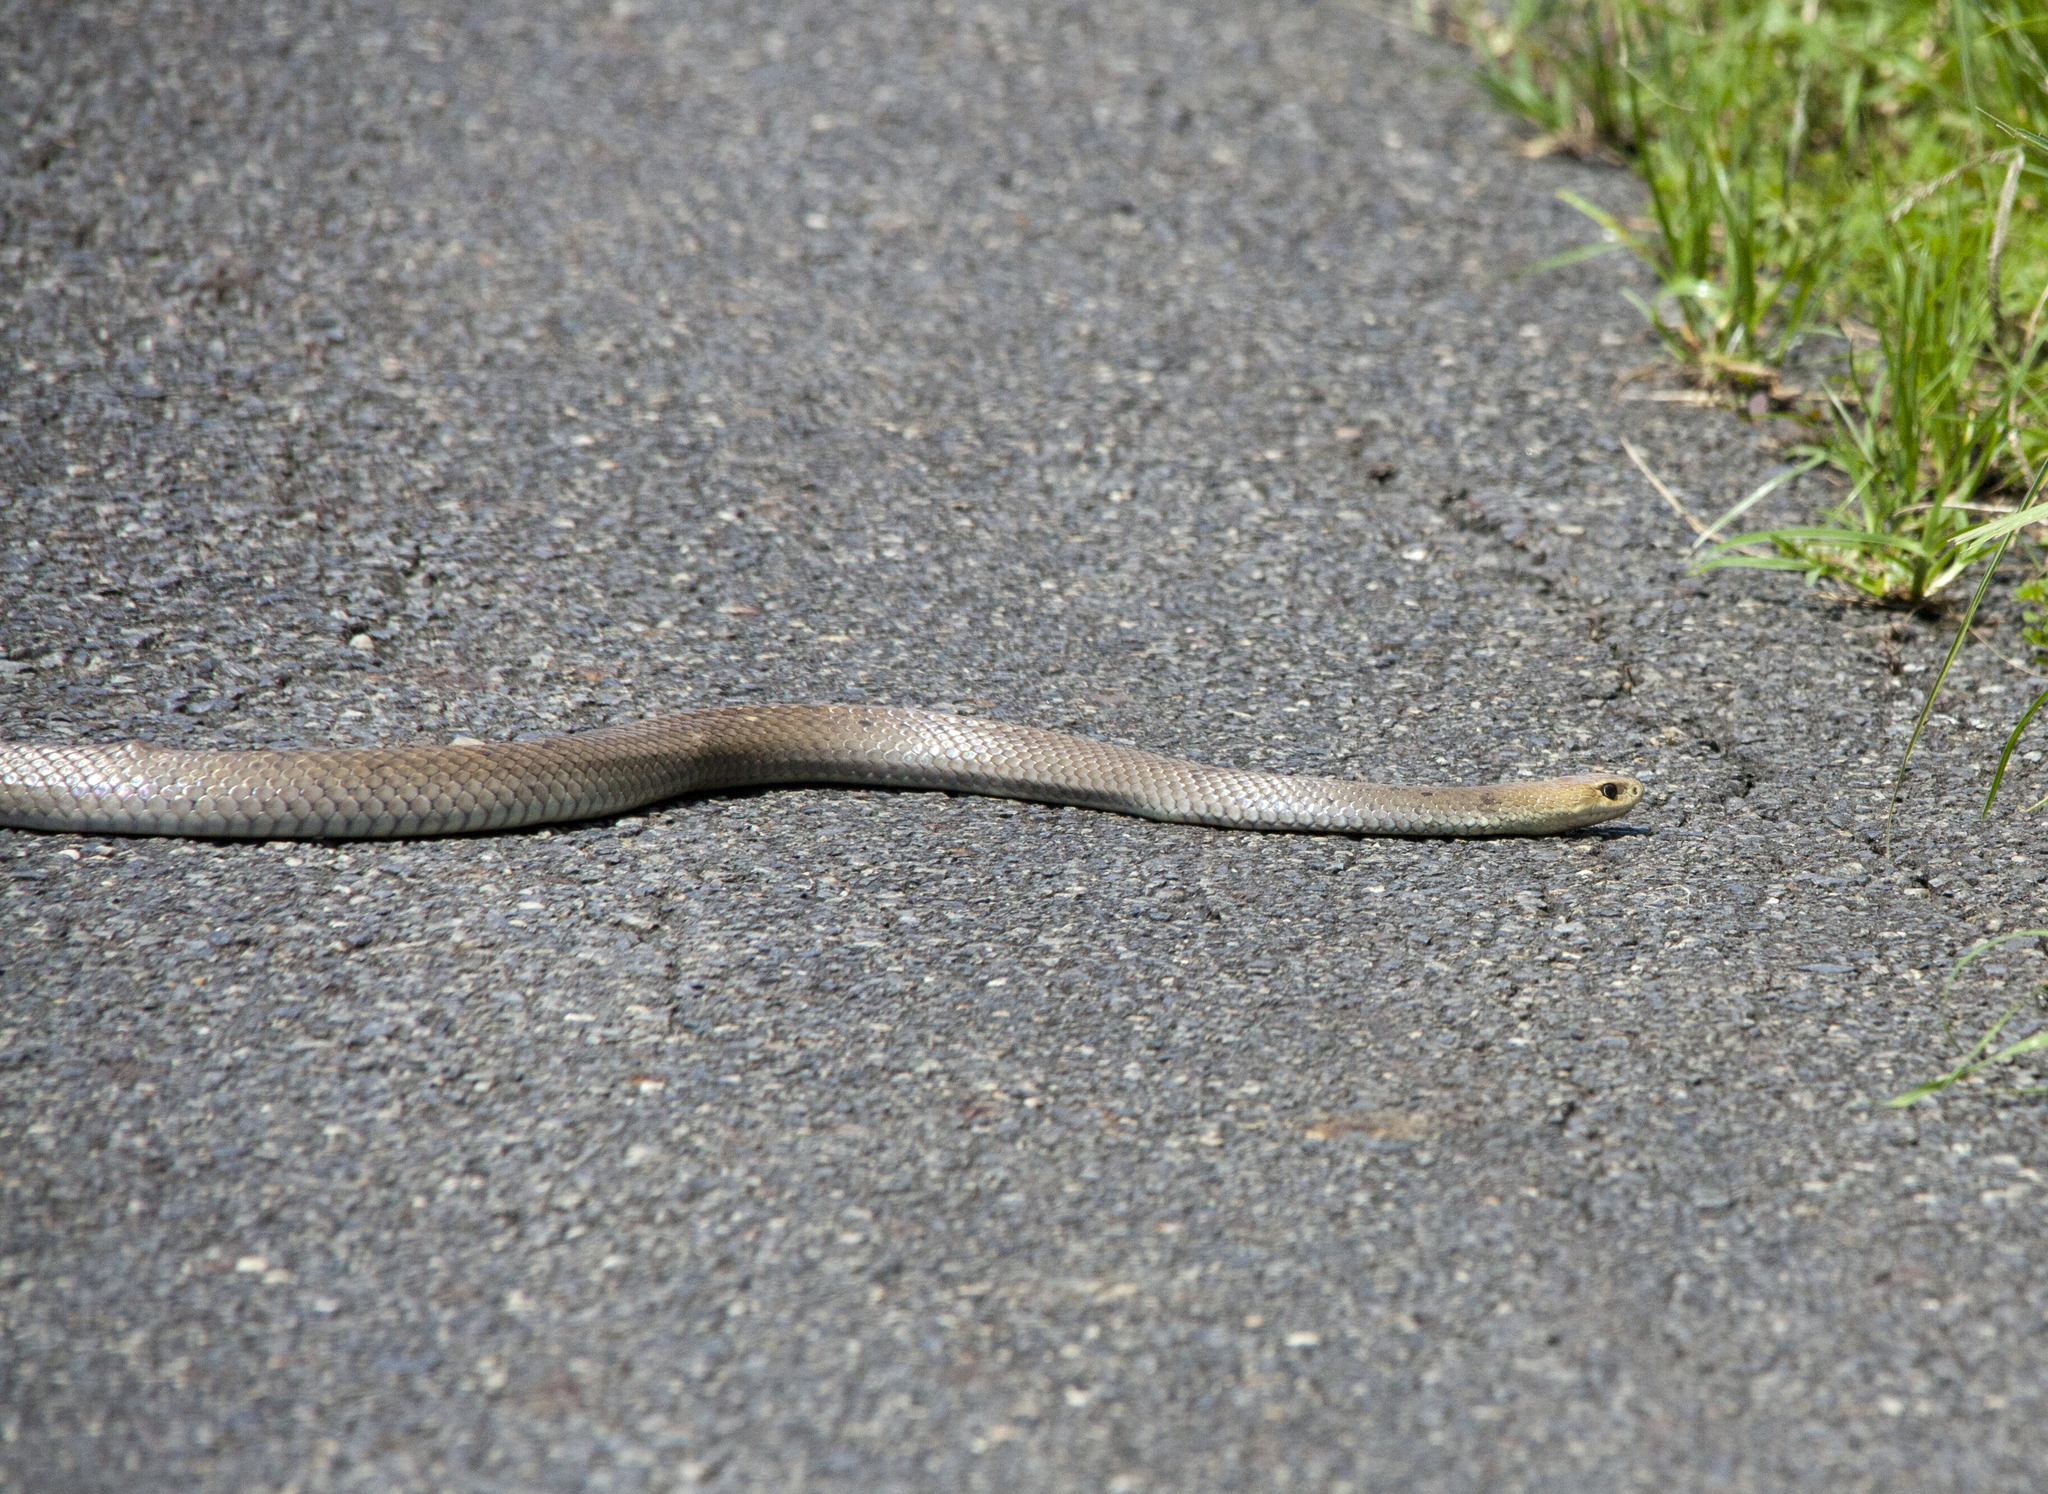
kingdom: Animalia
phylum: Chordata
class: Squamata
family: Elapidae
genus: Pseudonaja
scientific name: Pseudonaja textilis
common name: Eastern brown snake
